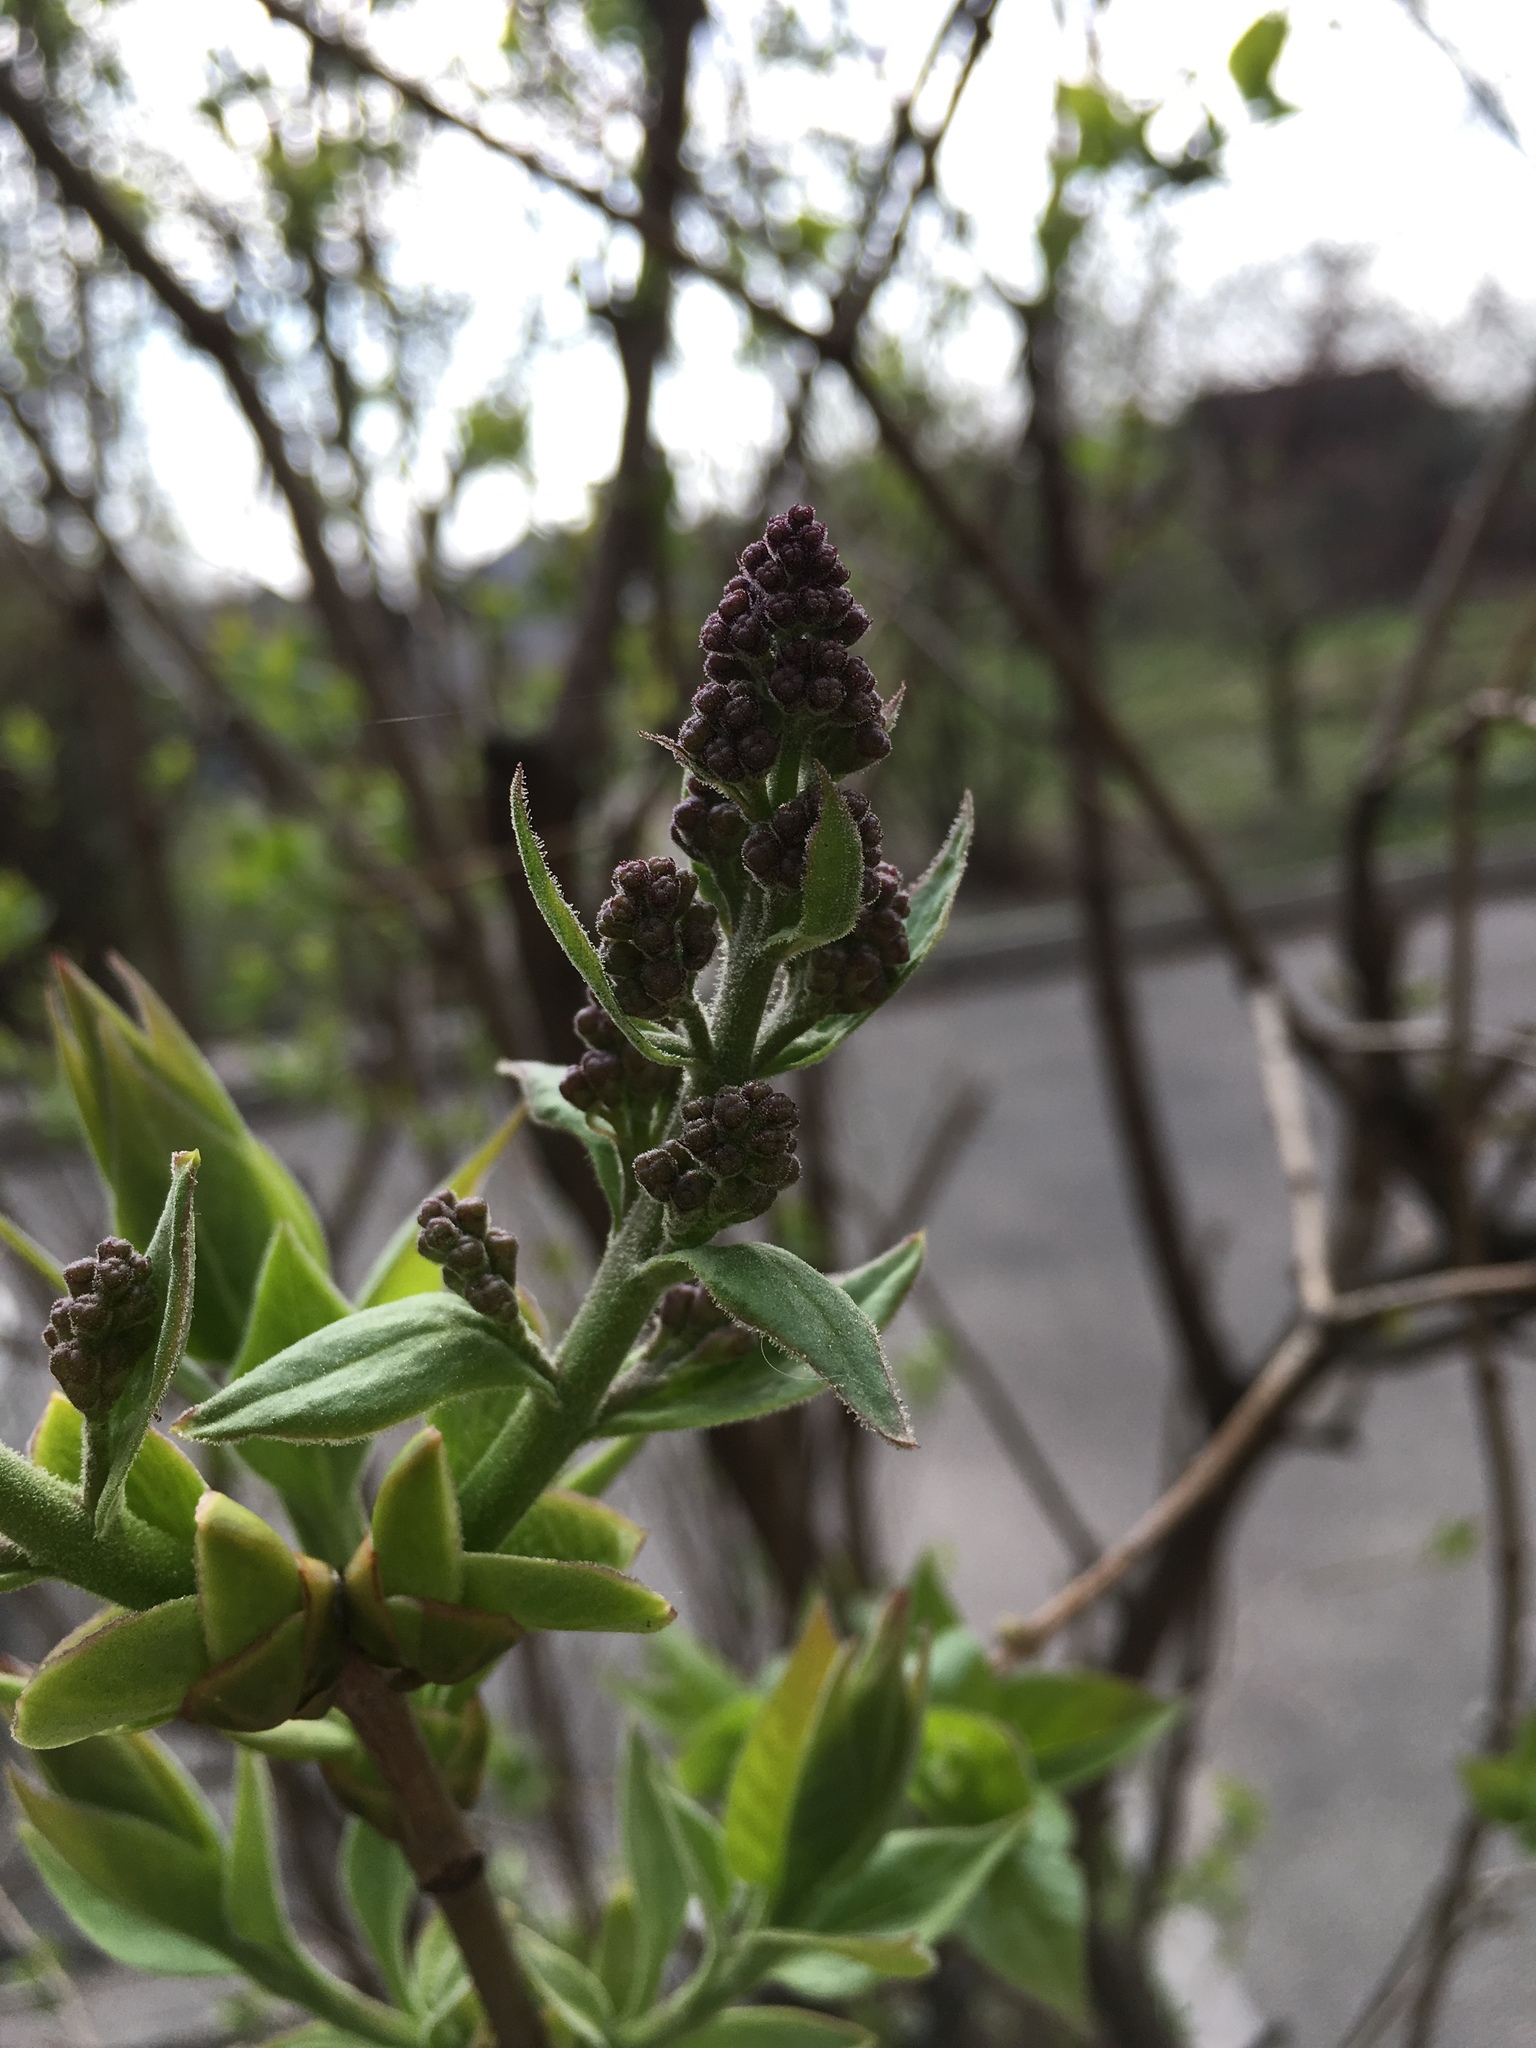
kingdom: Plantae
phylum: Tracheophyta
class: Magnoliopsida
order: Lamiales
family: Oleaceae
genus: Syringa
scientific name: Syringa vulgaris
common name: Common lilac
